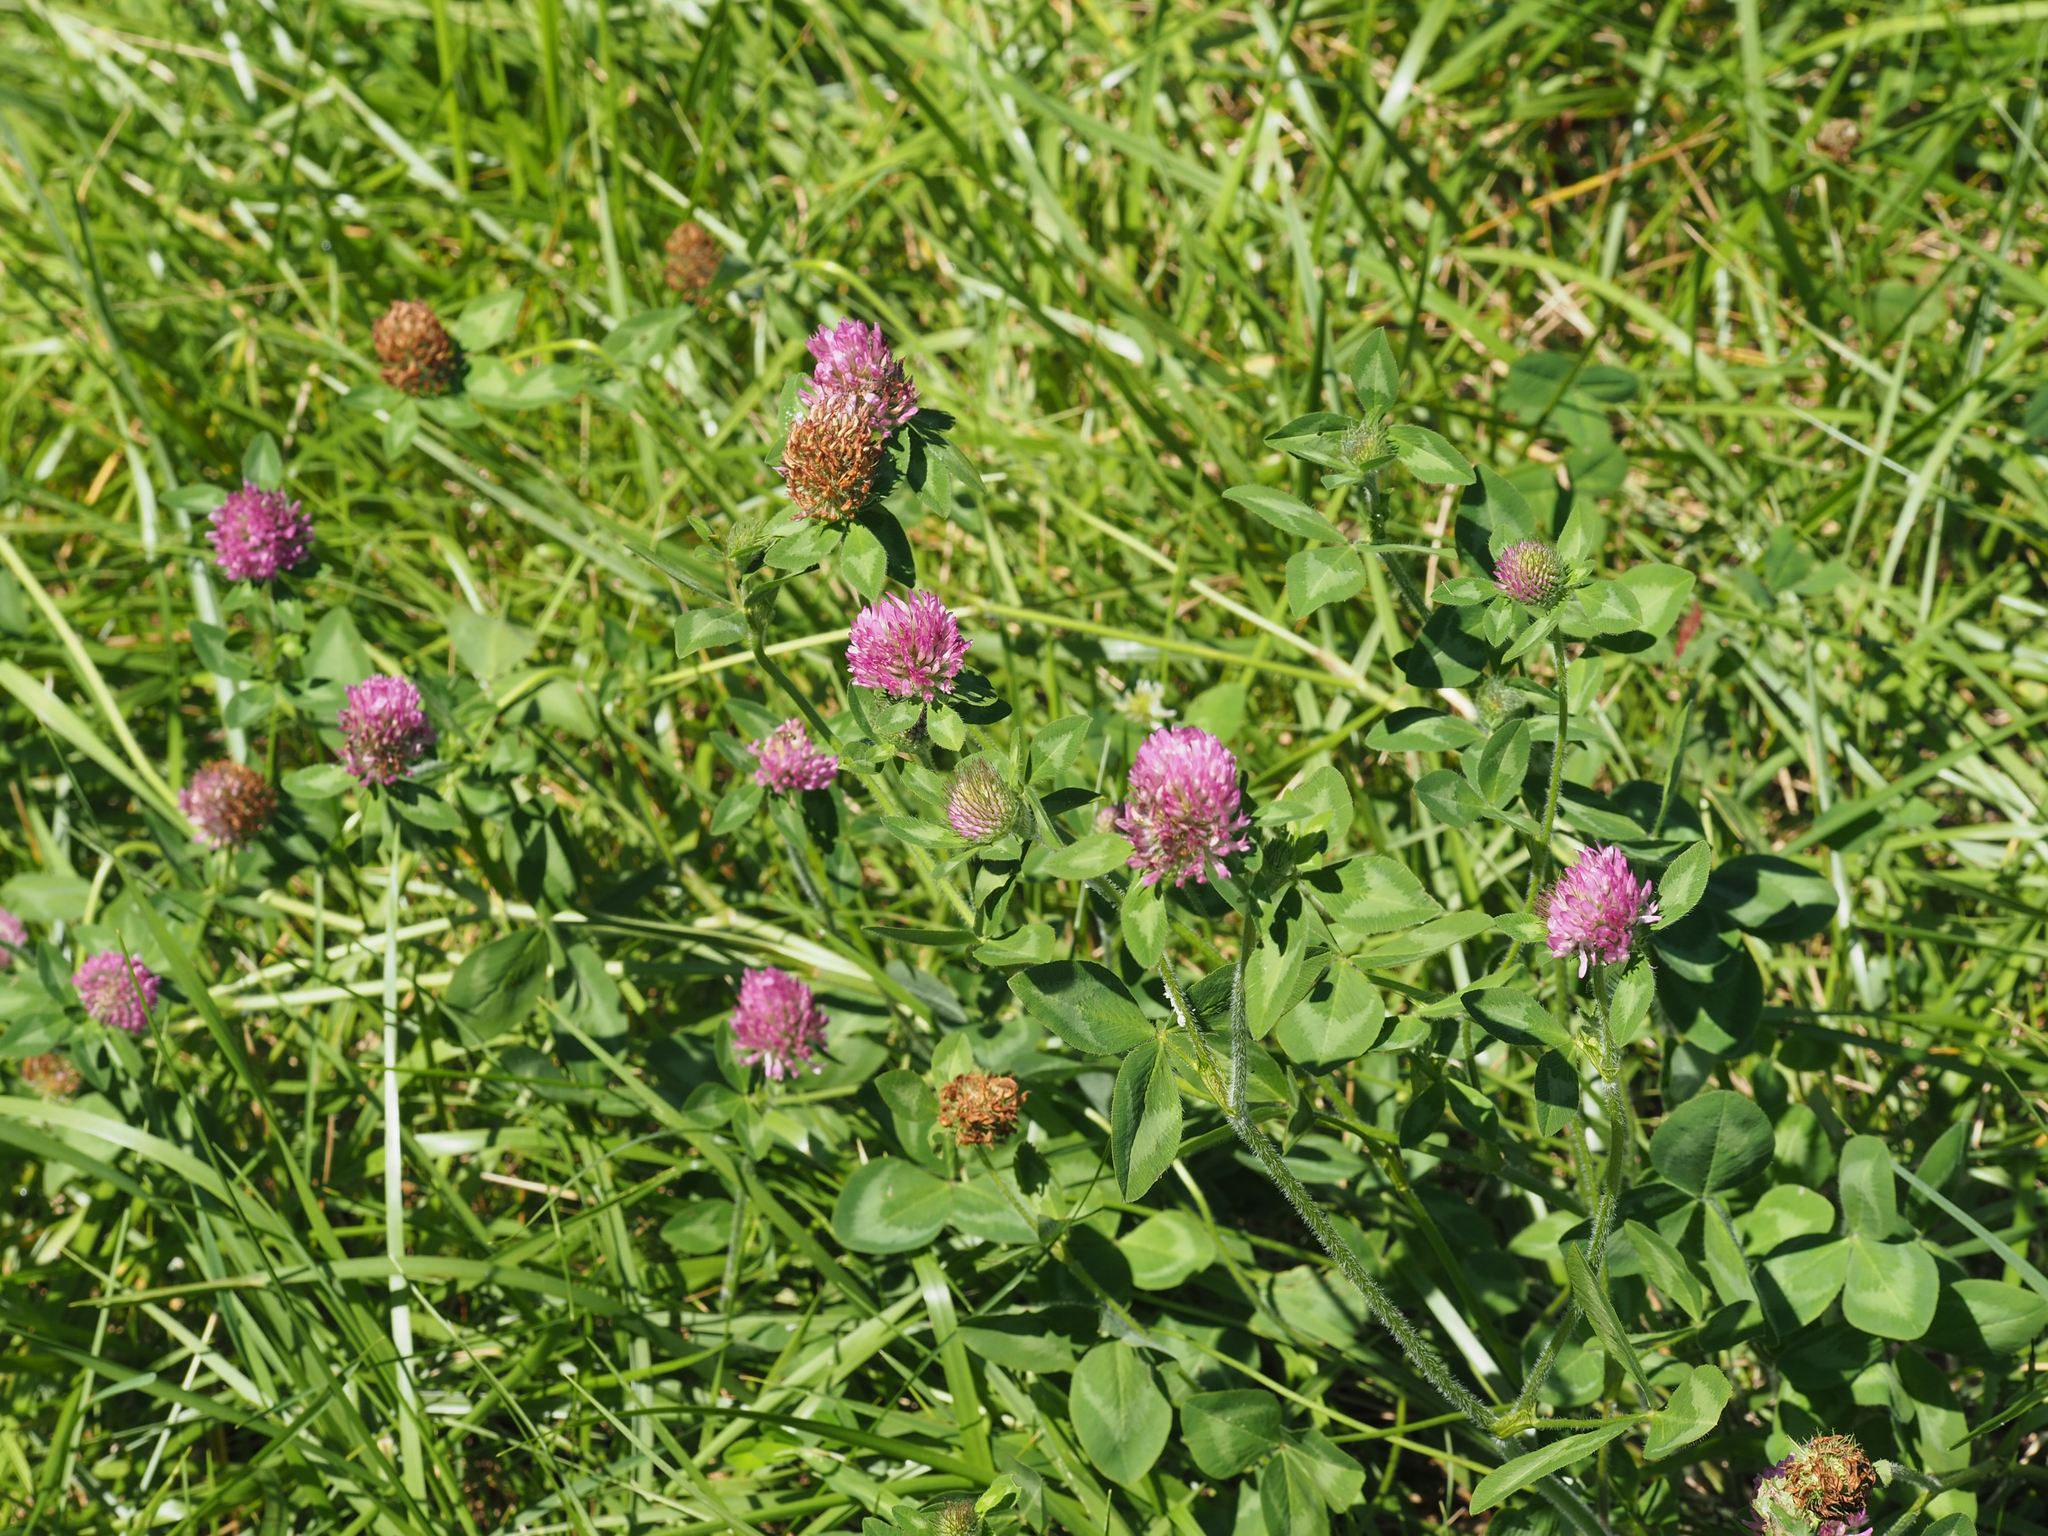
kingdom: Plantae
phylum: Tracheophyta
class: Magnoliopsida
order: Fabales
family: Fabaceae
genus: Trifolium
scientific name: Trifolium pratense
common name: Red clover
